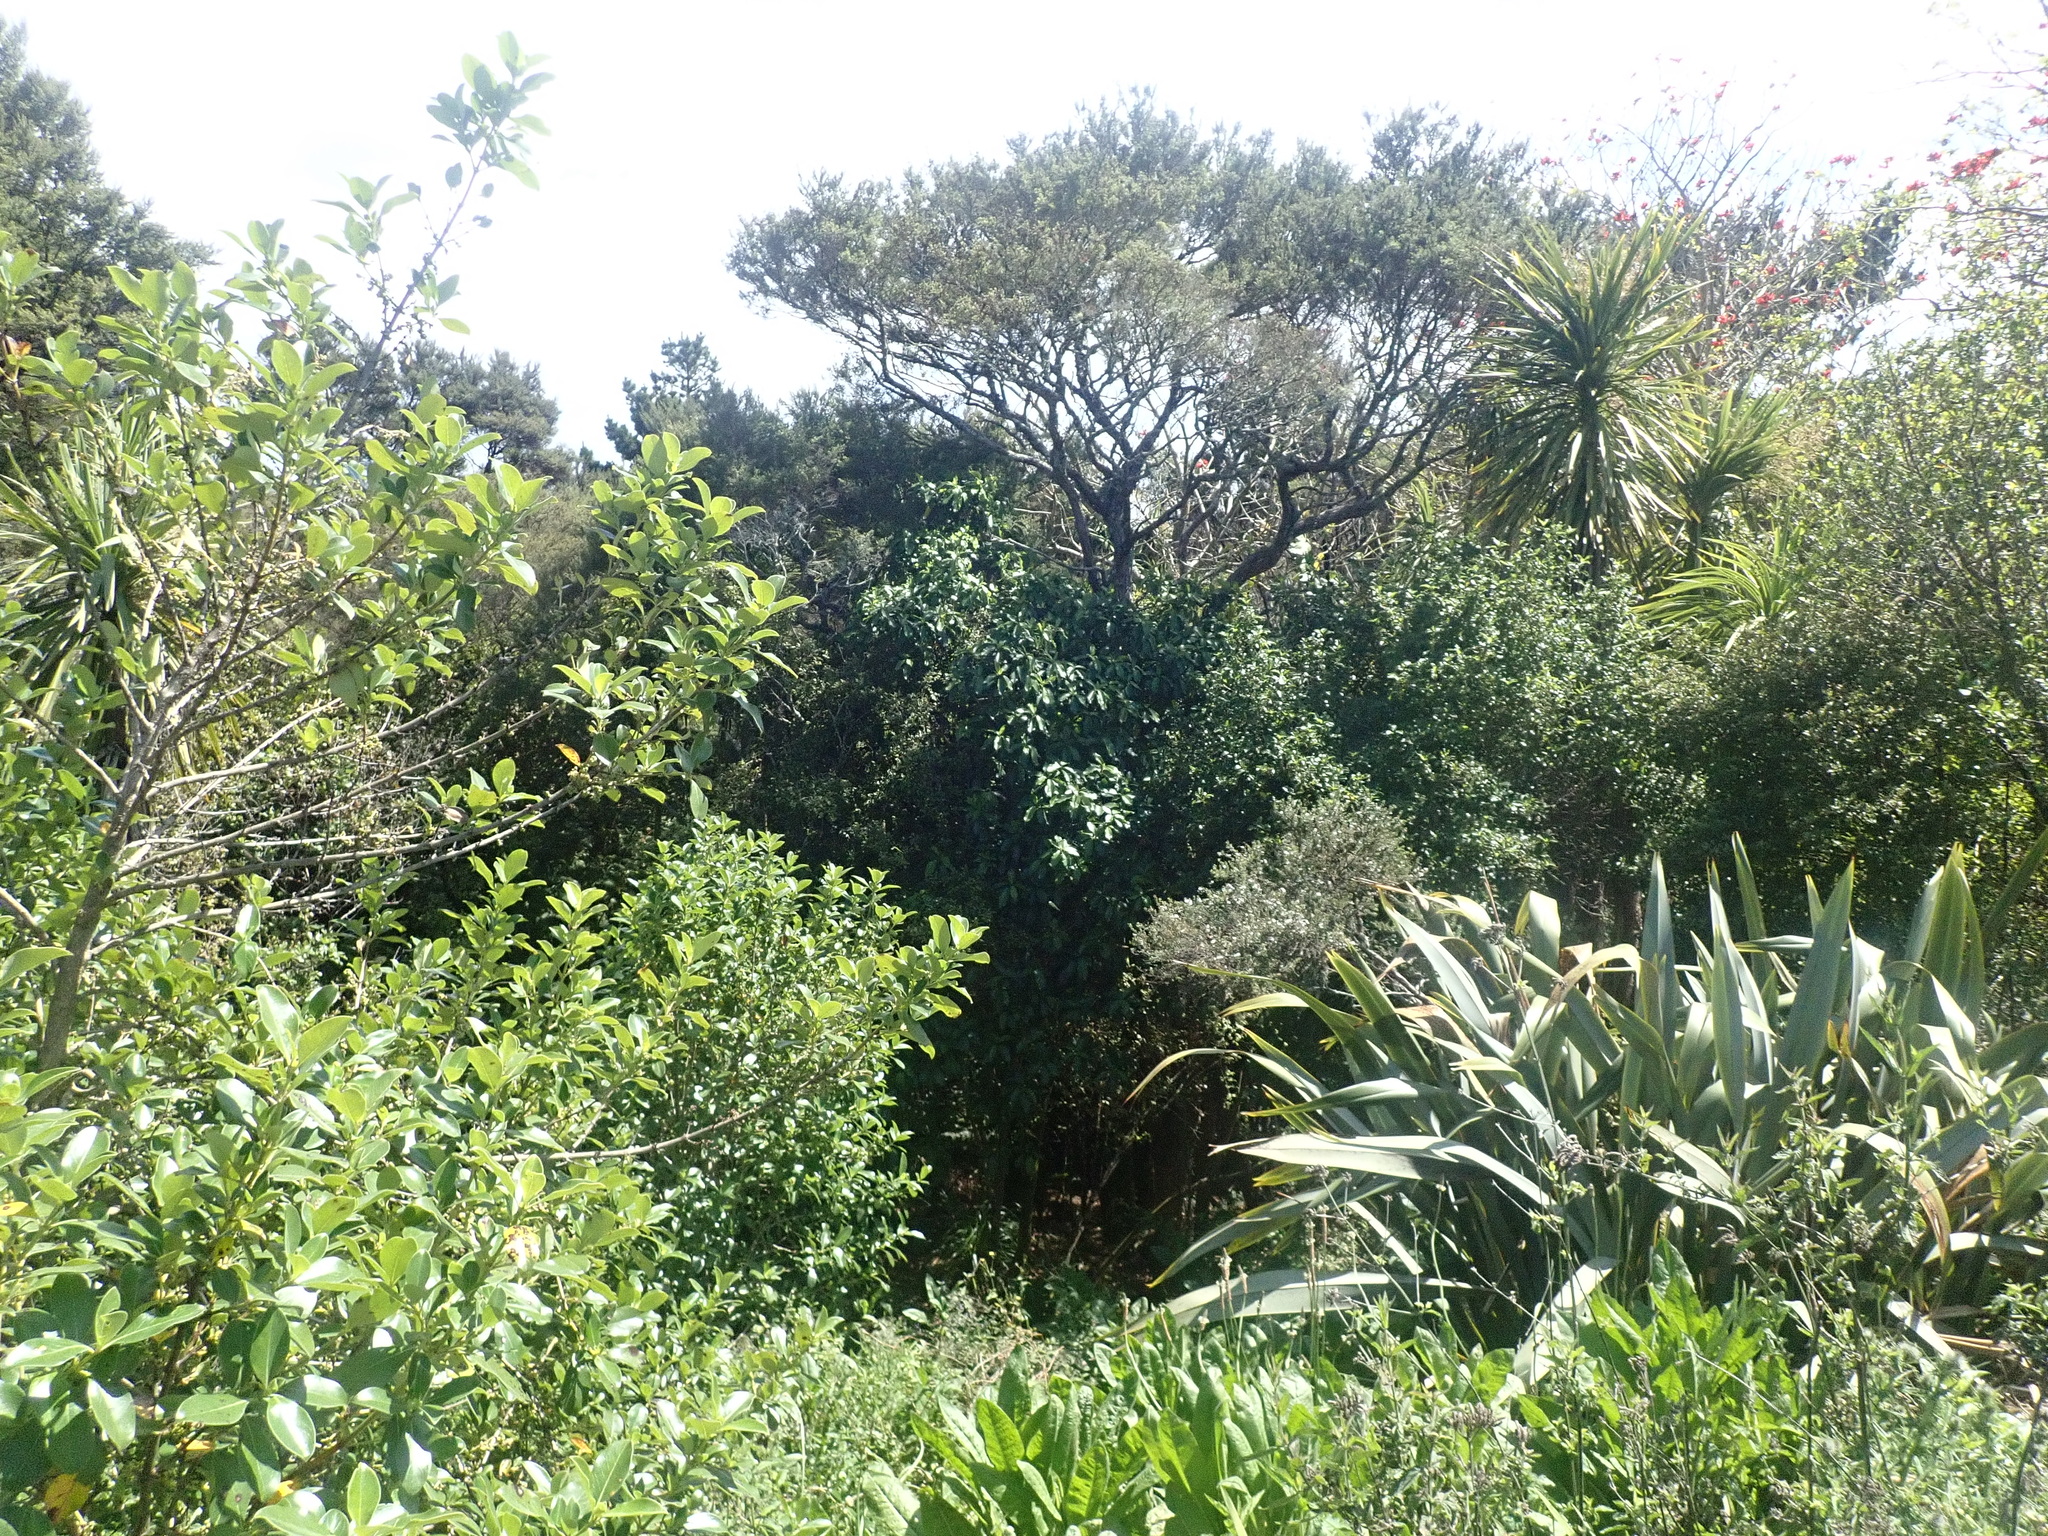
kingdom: Plantae
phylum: Tracheophyta
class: Magnoliopsida
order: Malpighiales
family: Violaceae
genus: Melicytus
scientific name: Melicytus ramiflorus
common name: Mahoe
